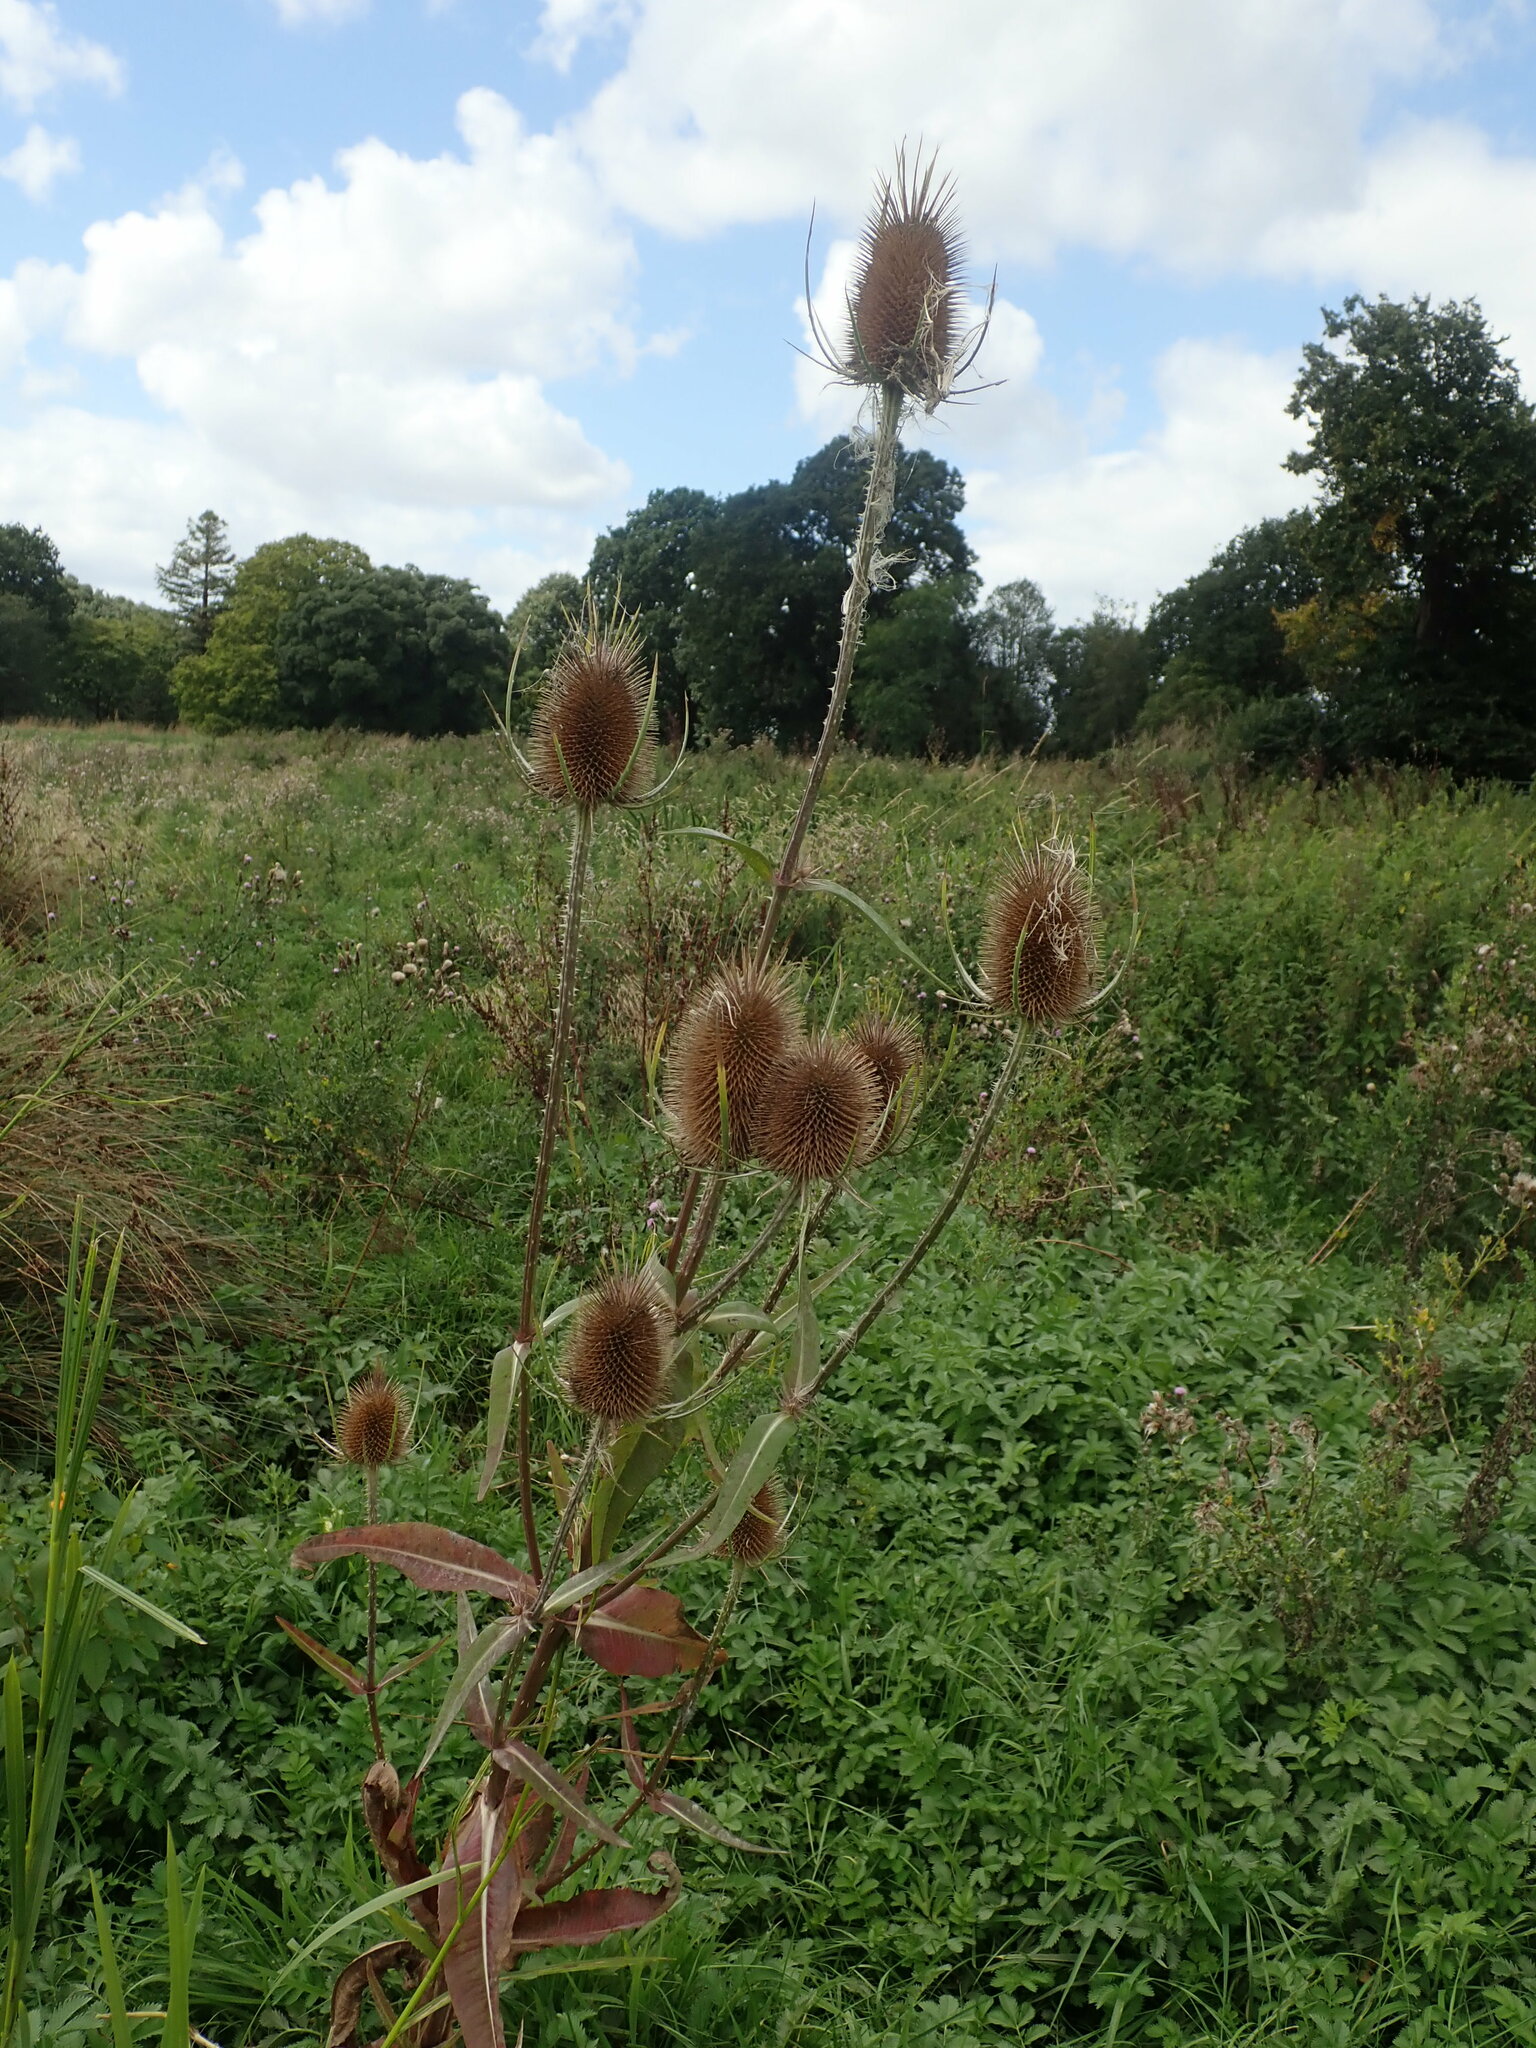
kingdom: Plantae
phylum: Tracheophyta
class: Magnoliopsida
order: Dipsacales
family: Caprifoliaceae
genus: Dipsacus
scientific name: Dipsacus fullonum
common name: Teasel
